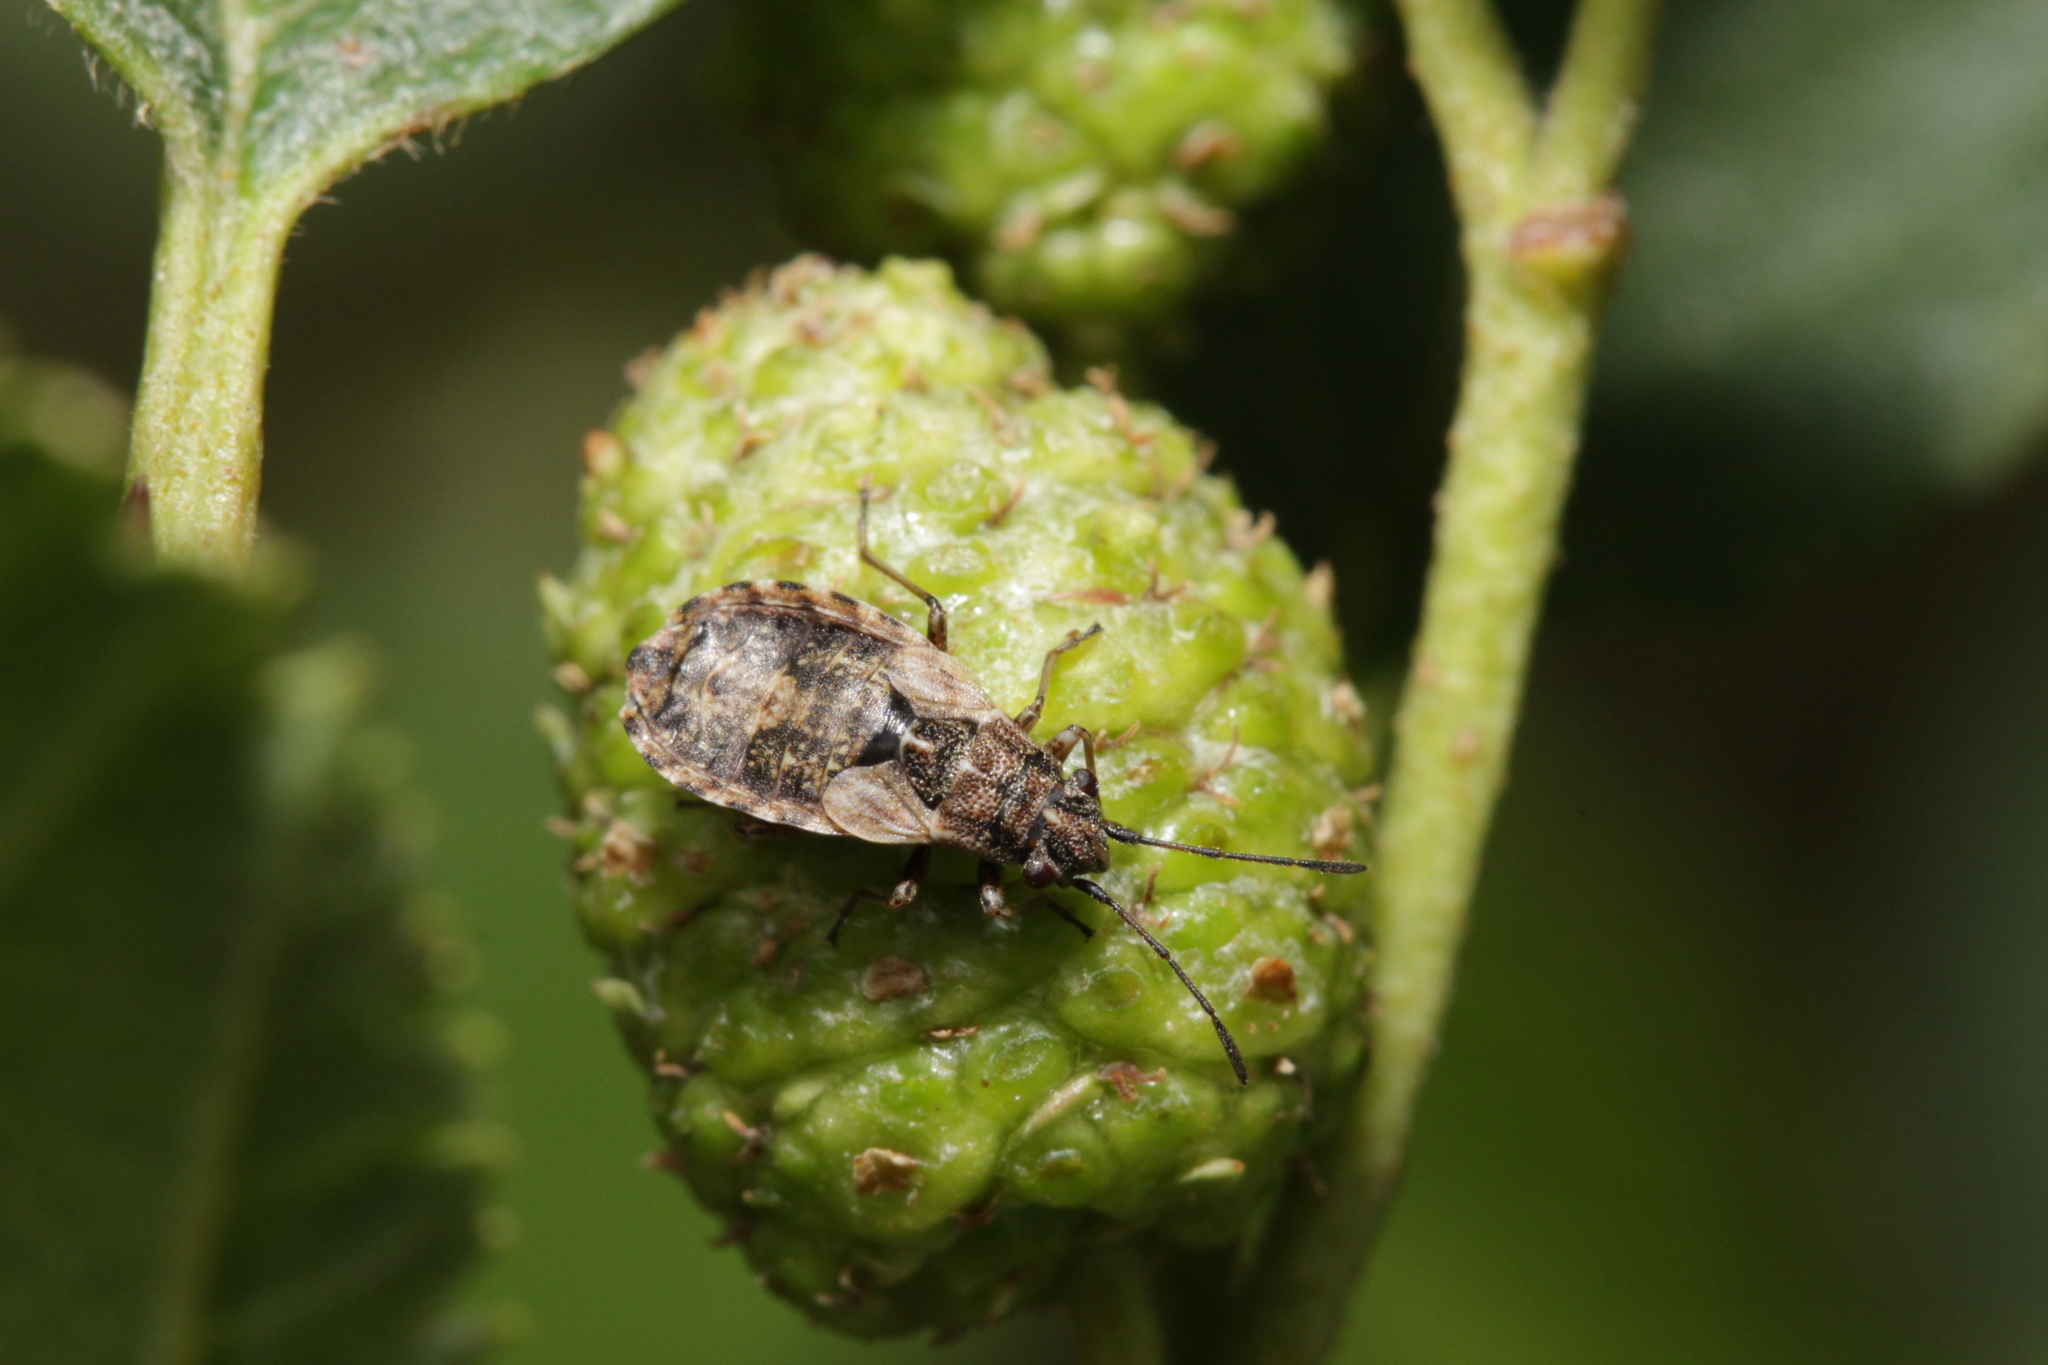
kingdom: Animalia
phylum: Arthropoda
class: Insecta
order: Hemiptera
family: Lygaeidae
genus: Nithecus
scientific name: Nithecus jacobaeae
